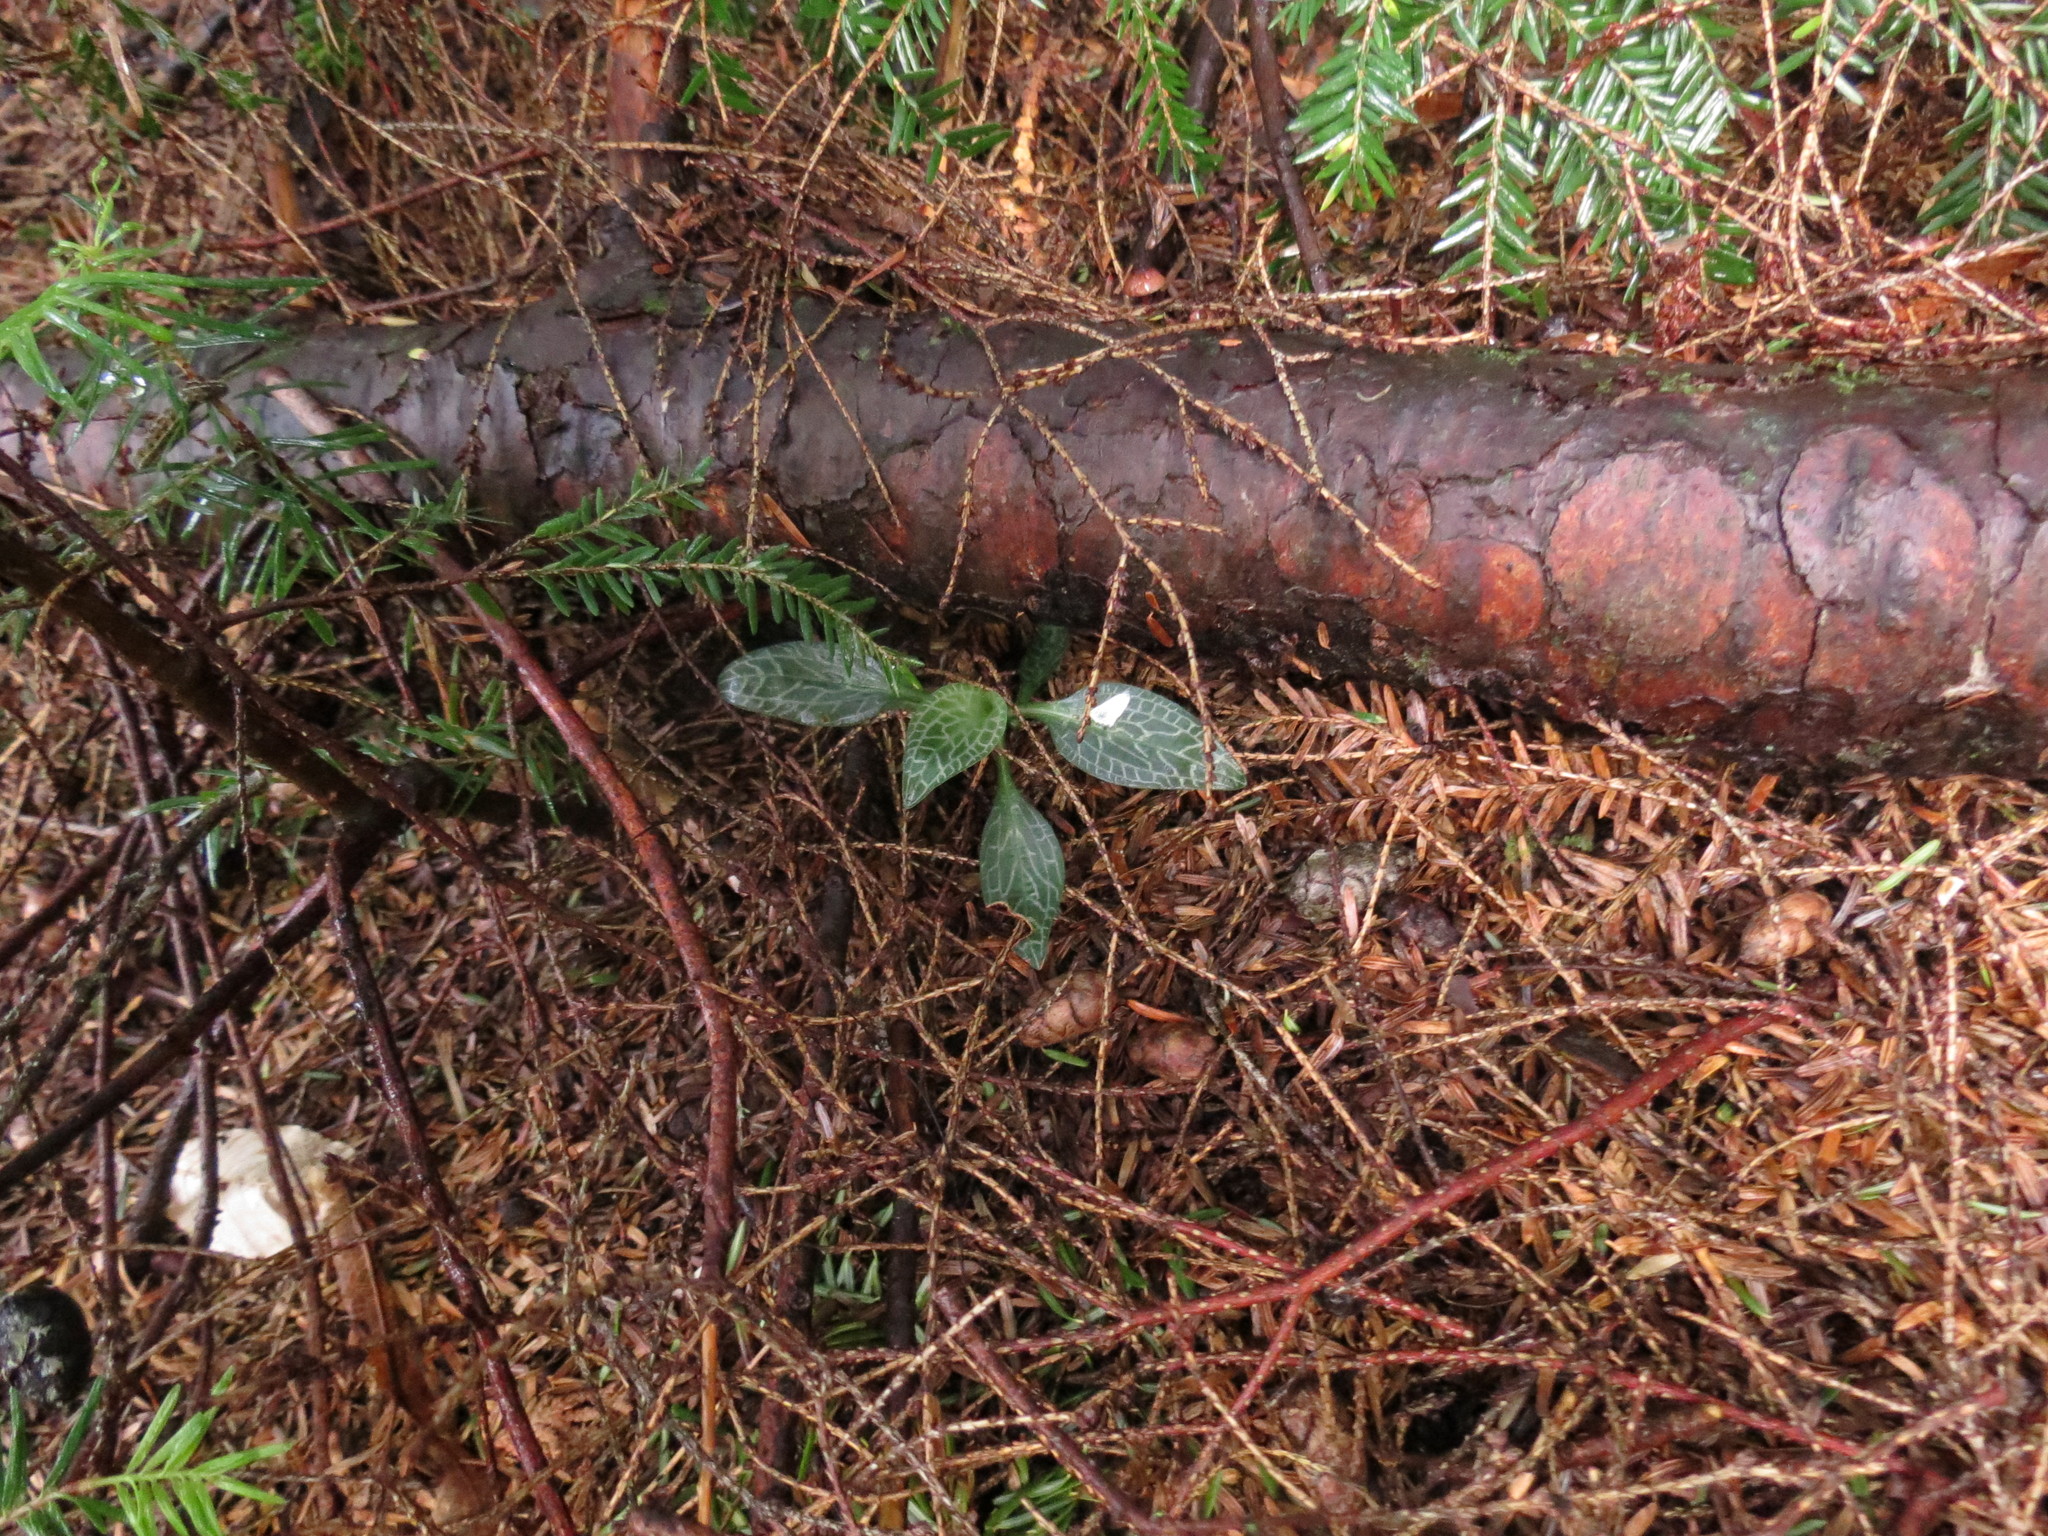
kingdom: Plantae
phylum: Tracheophyta
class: Liliopsida
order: Asparagales
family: Orchidaceae
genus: Goodyera
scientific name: Goodyera tesselata
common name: Checkered rattlesnake-plantain
